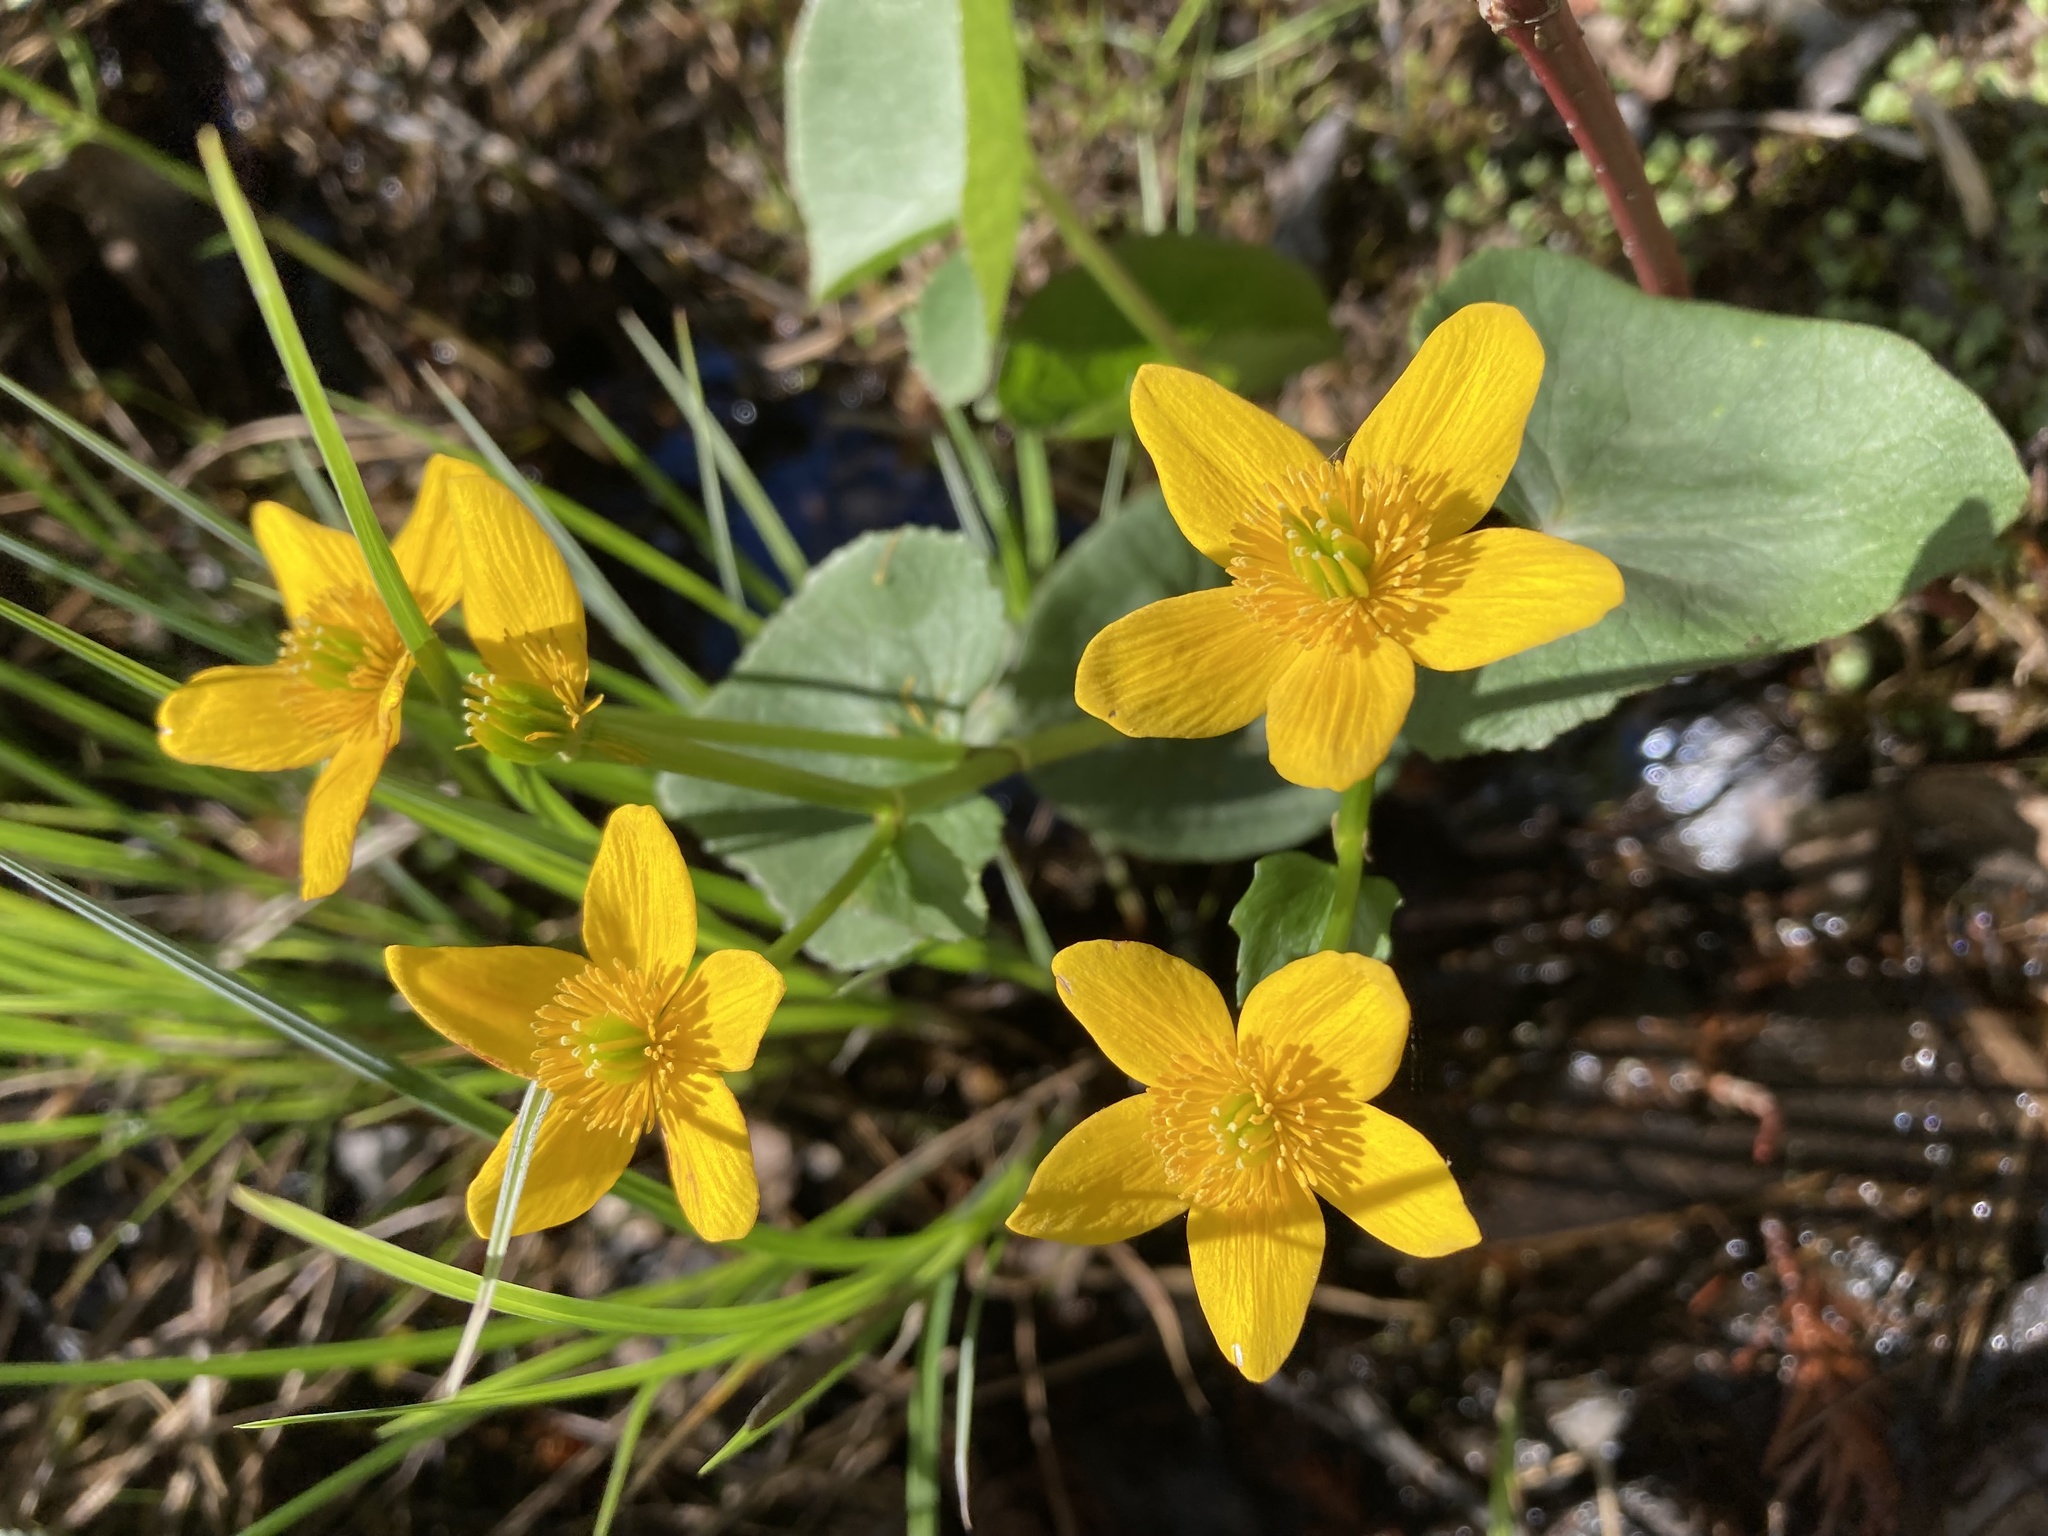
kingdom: Plantae
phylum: Tracheophyta
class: Magnoliopsida
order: Ranunculales
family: Ranunculaceae
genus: Caltha
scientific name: Caltha palustris
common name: Marsh marigold
